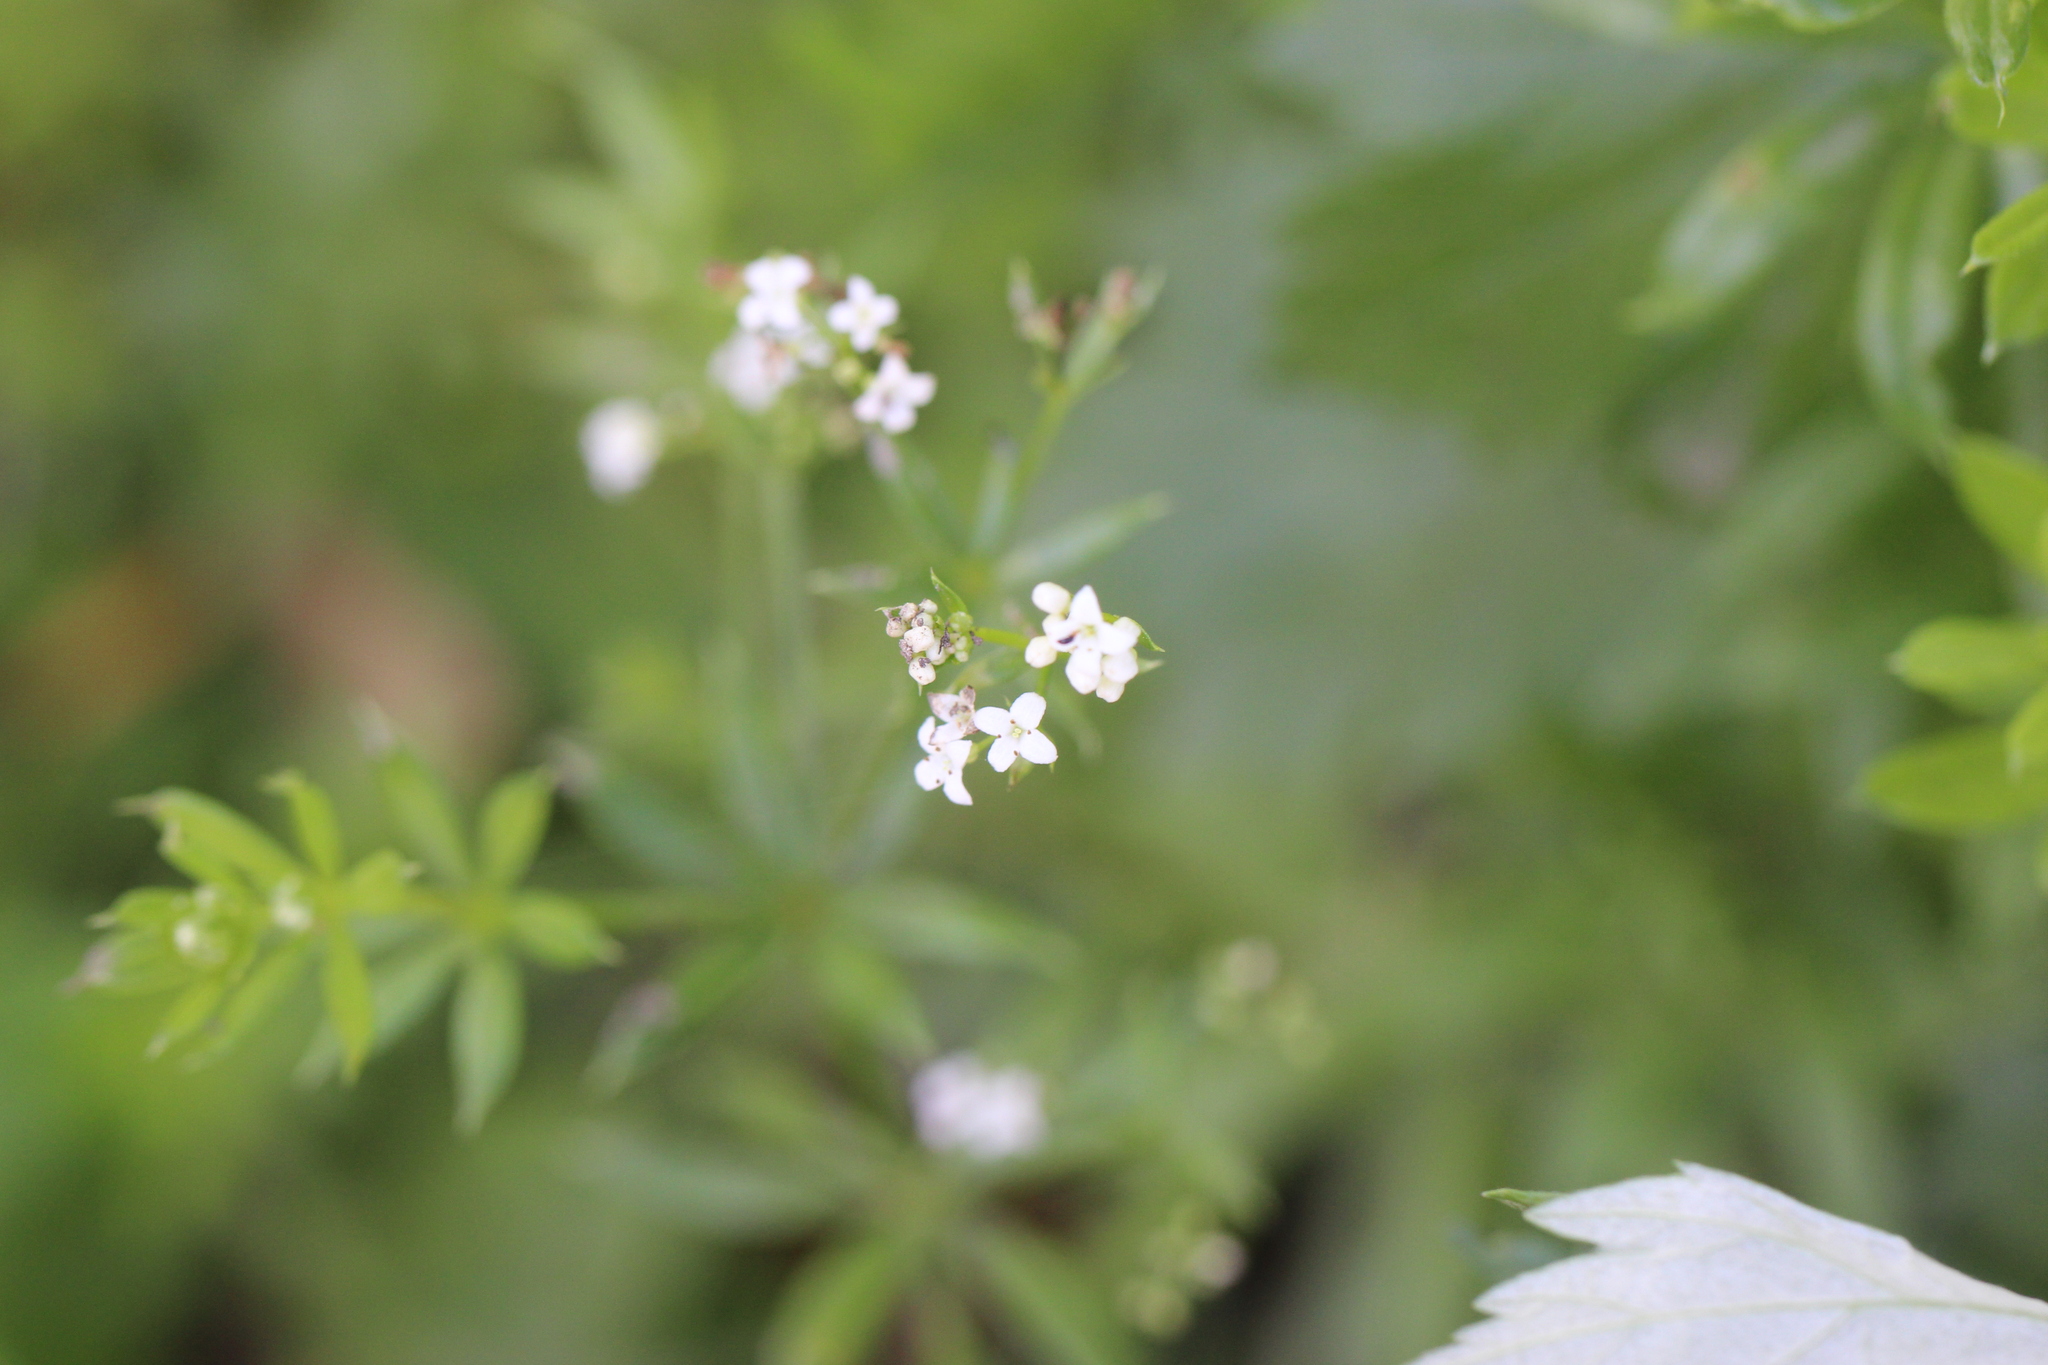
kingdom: Plantae
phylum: Tracheophyta
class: Magnoliopsida
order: Gentianales
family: Rubiaceae
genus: Galium
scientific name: Galium rivale
